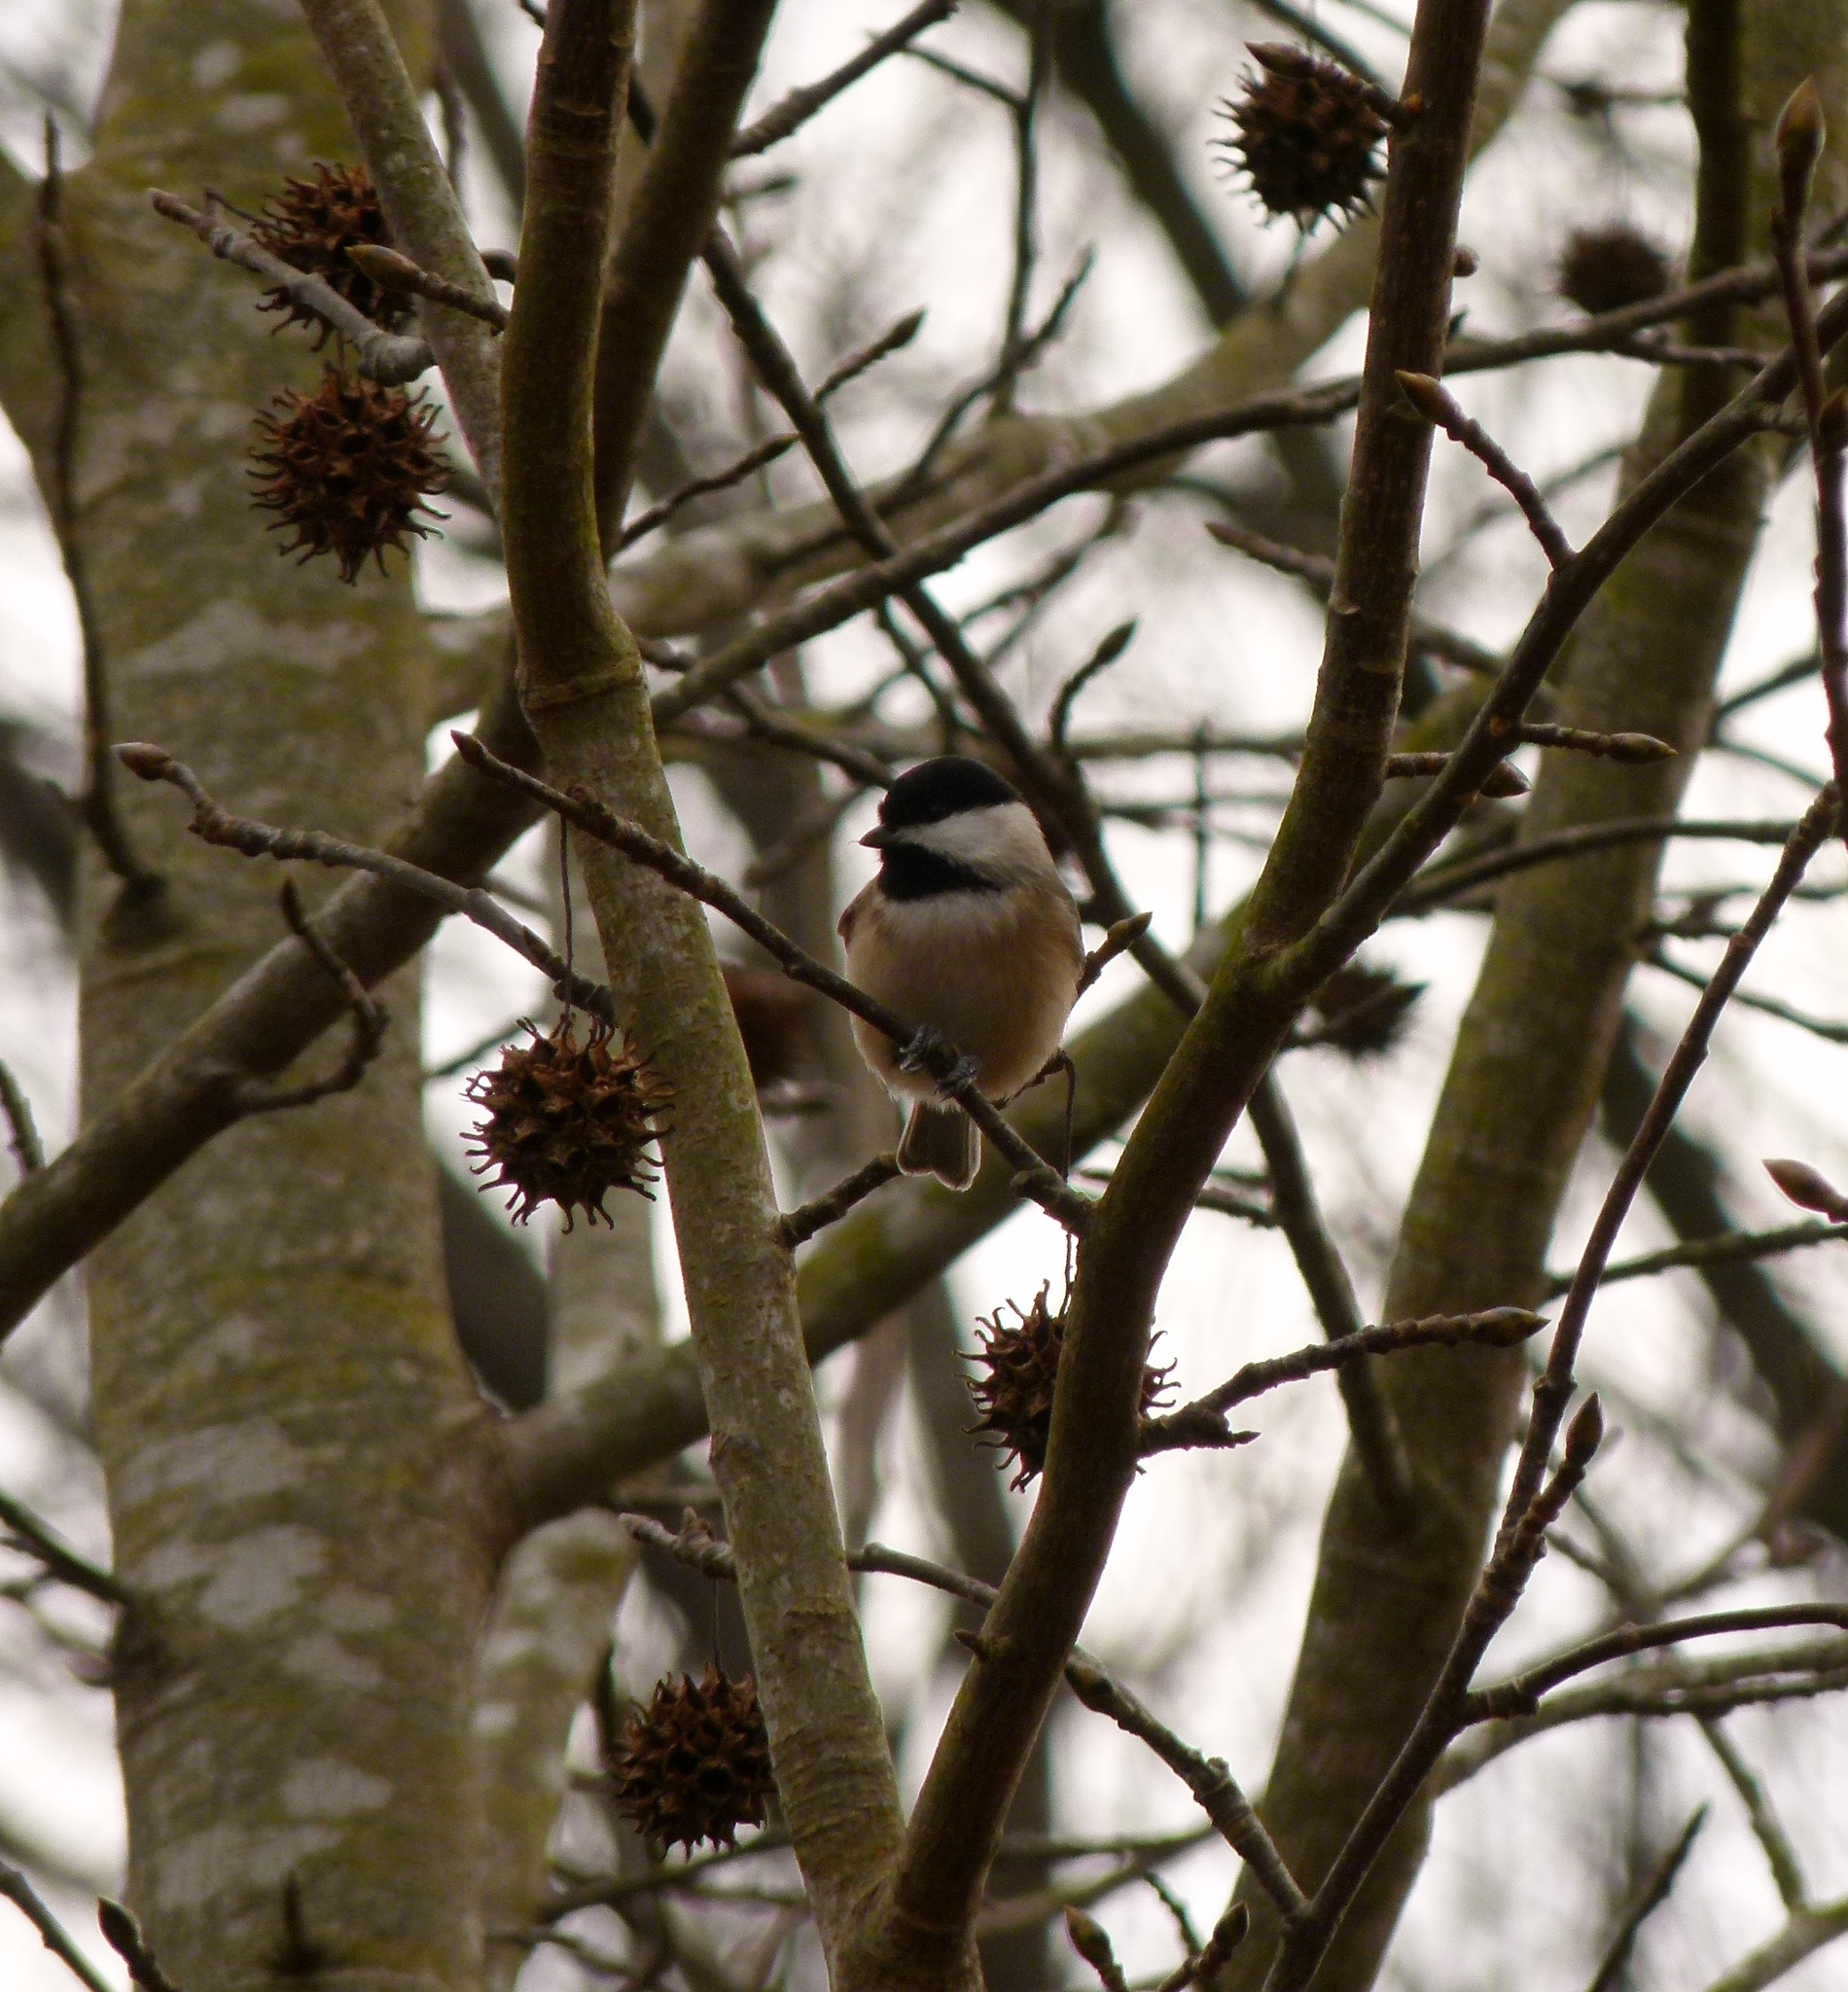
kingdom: Animalia
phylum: Chordata
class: Aves
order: Passeriformes
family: Paridae
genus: Poecile
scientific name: Poecile carolinensis
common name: Carolina chickadee
